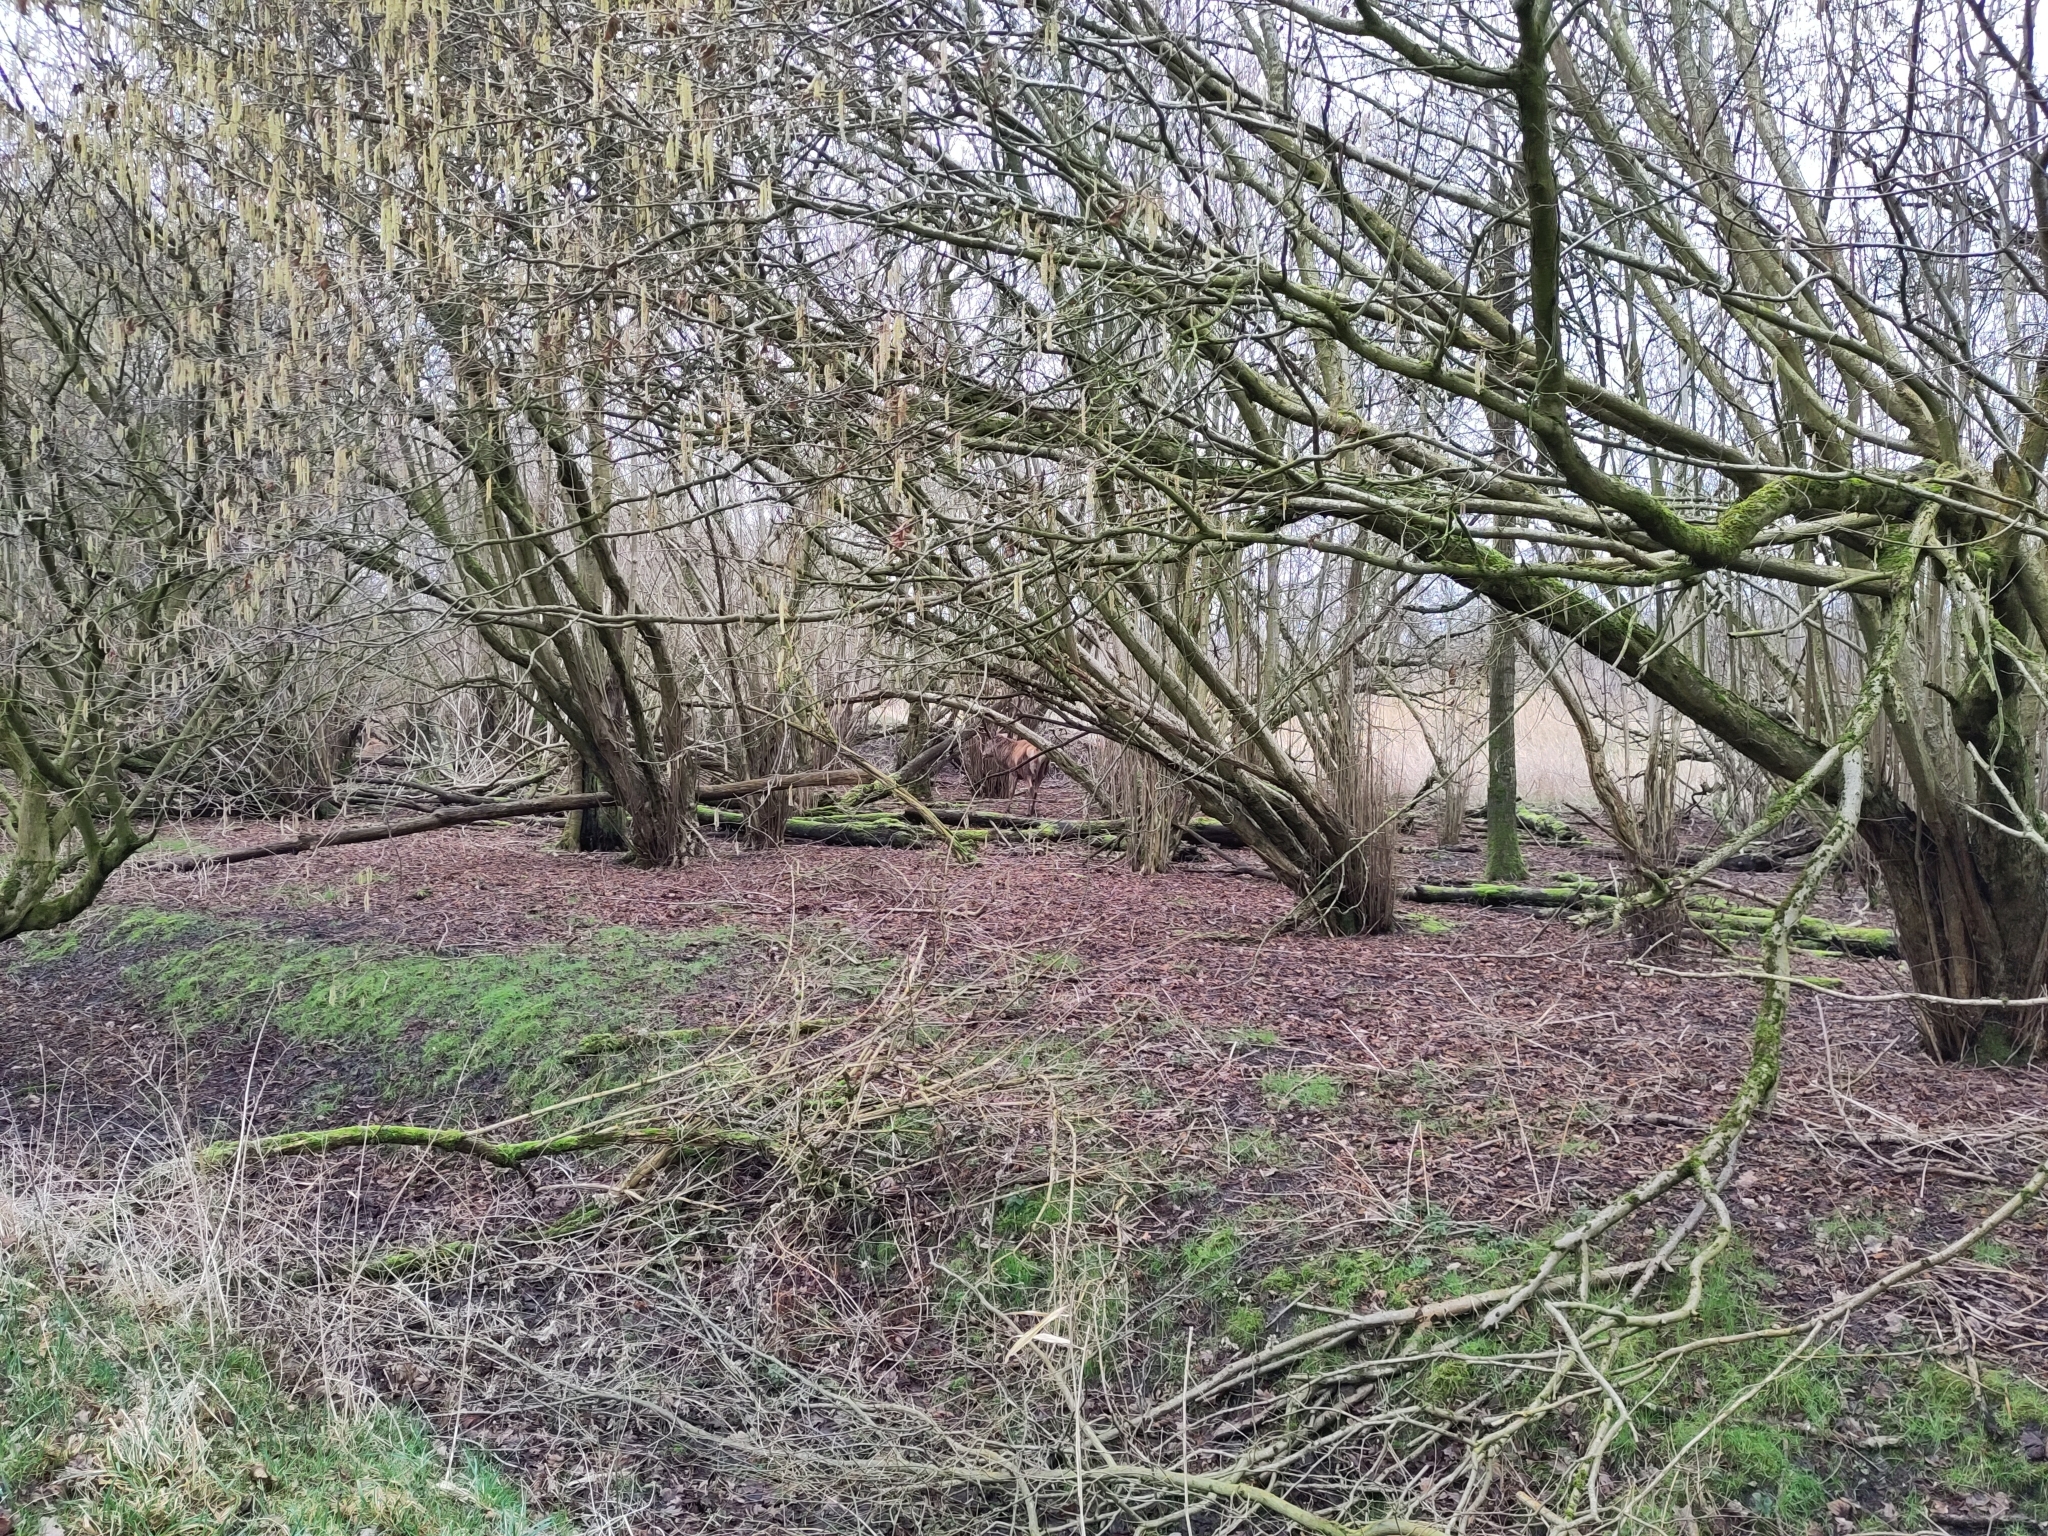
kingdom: Animalia
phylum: Chordata
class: Mammalia
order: Artiodactyla
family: Cervidae
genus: Cervus
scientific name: Cervus elaphus
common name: Red deer
